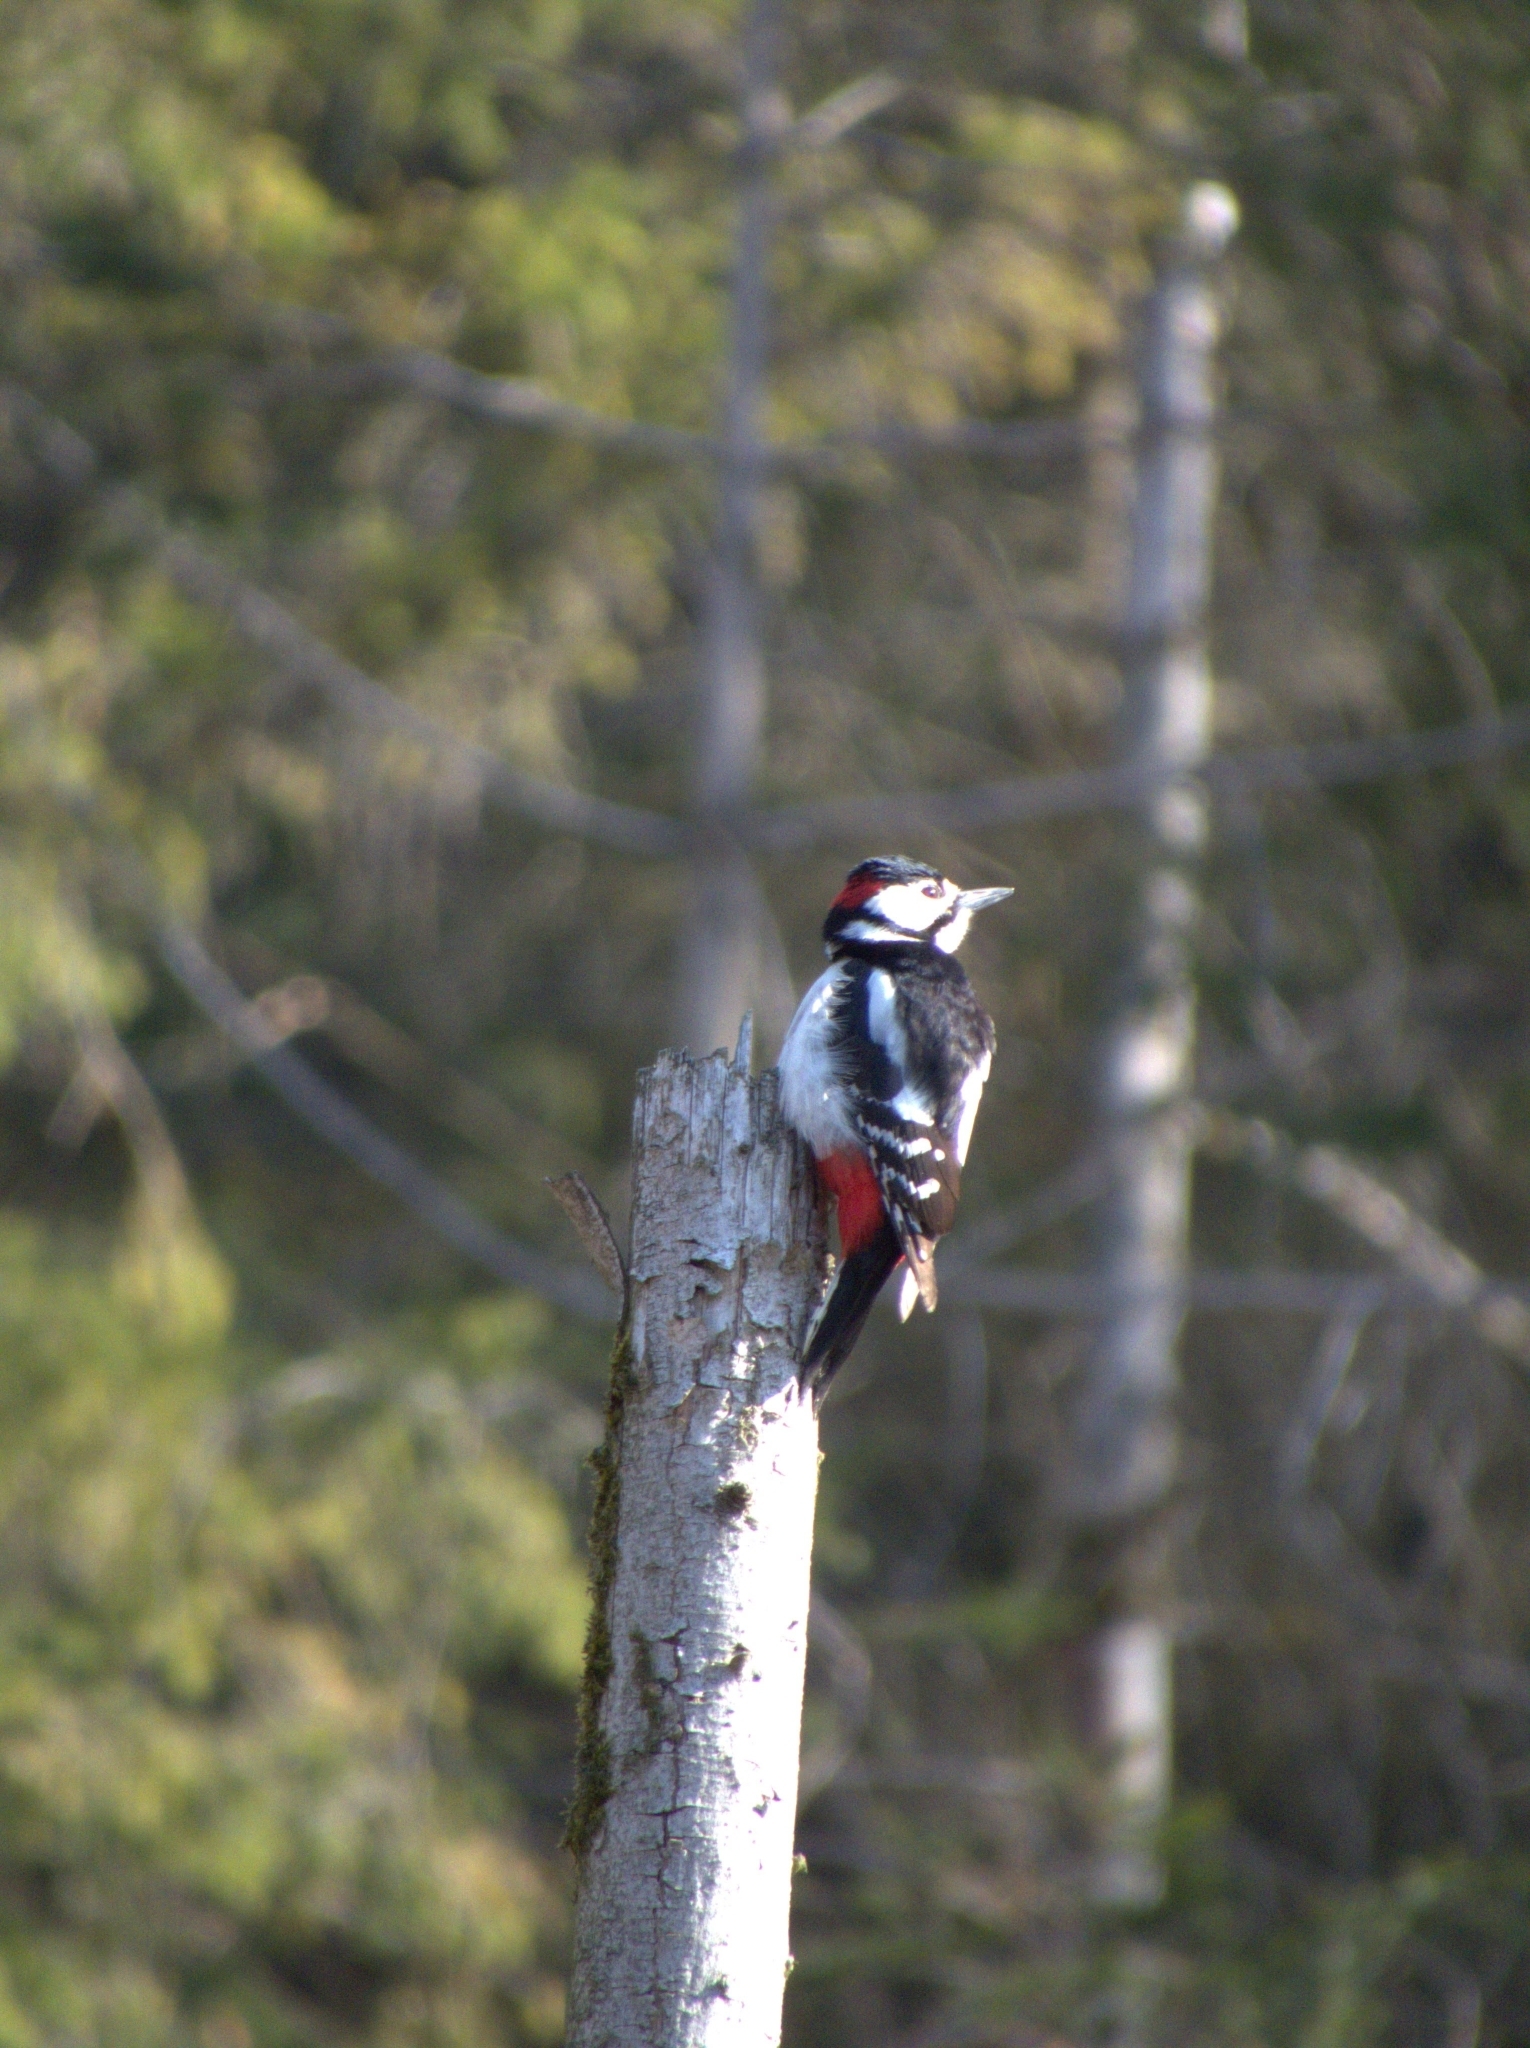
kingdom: Animalia
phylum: Chordata
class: Aves
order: Piciformes
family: Picidae
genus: Dendrocopos
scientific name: Dendrocopos major
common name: Great spotted woodpecker
